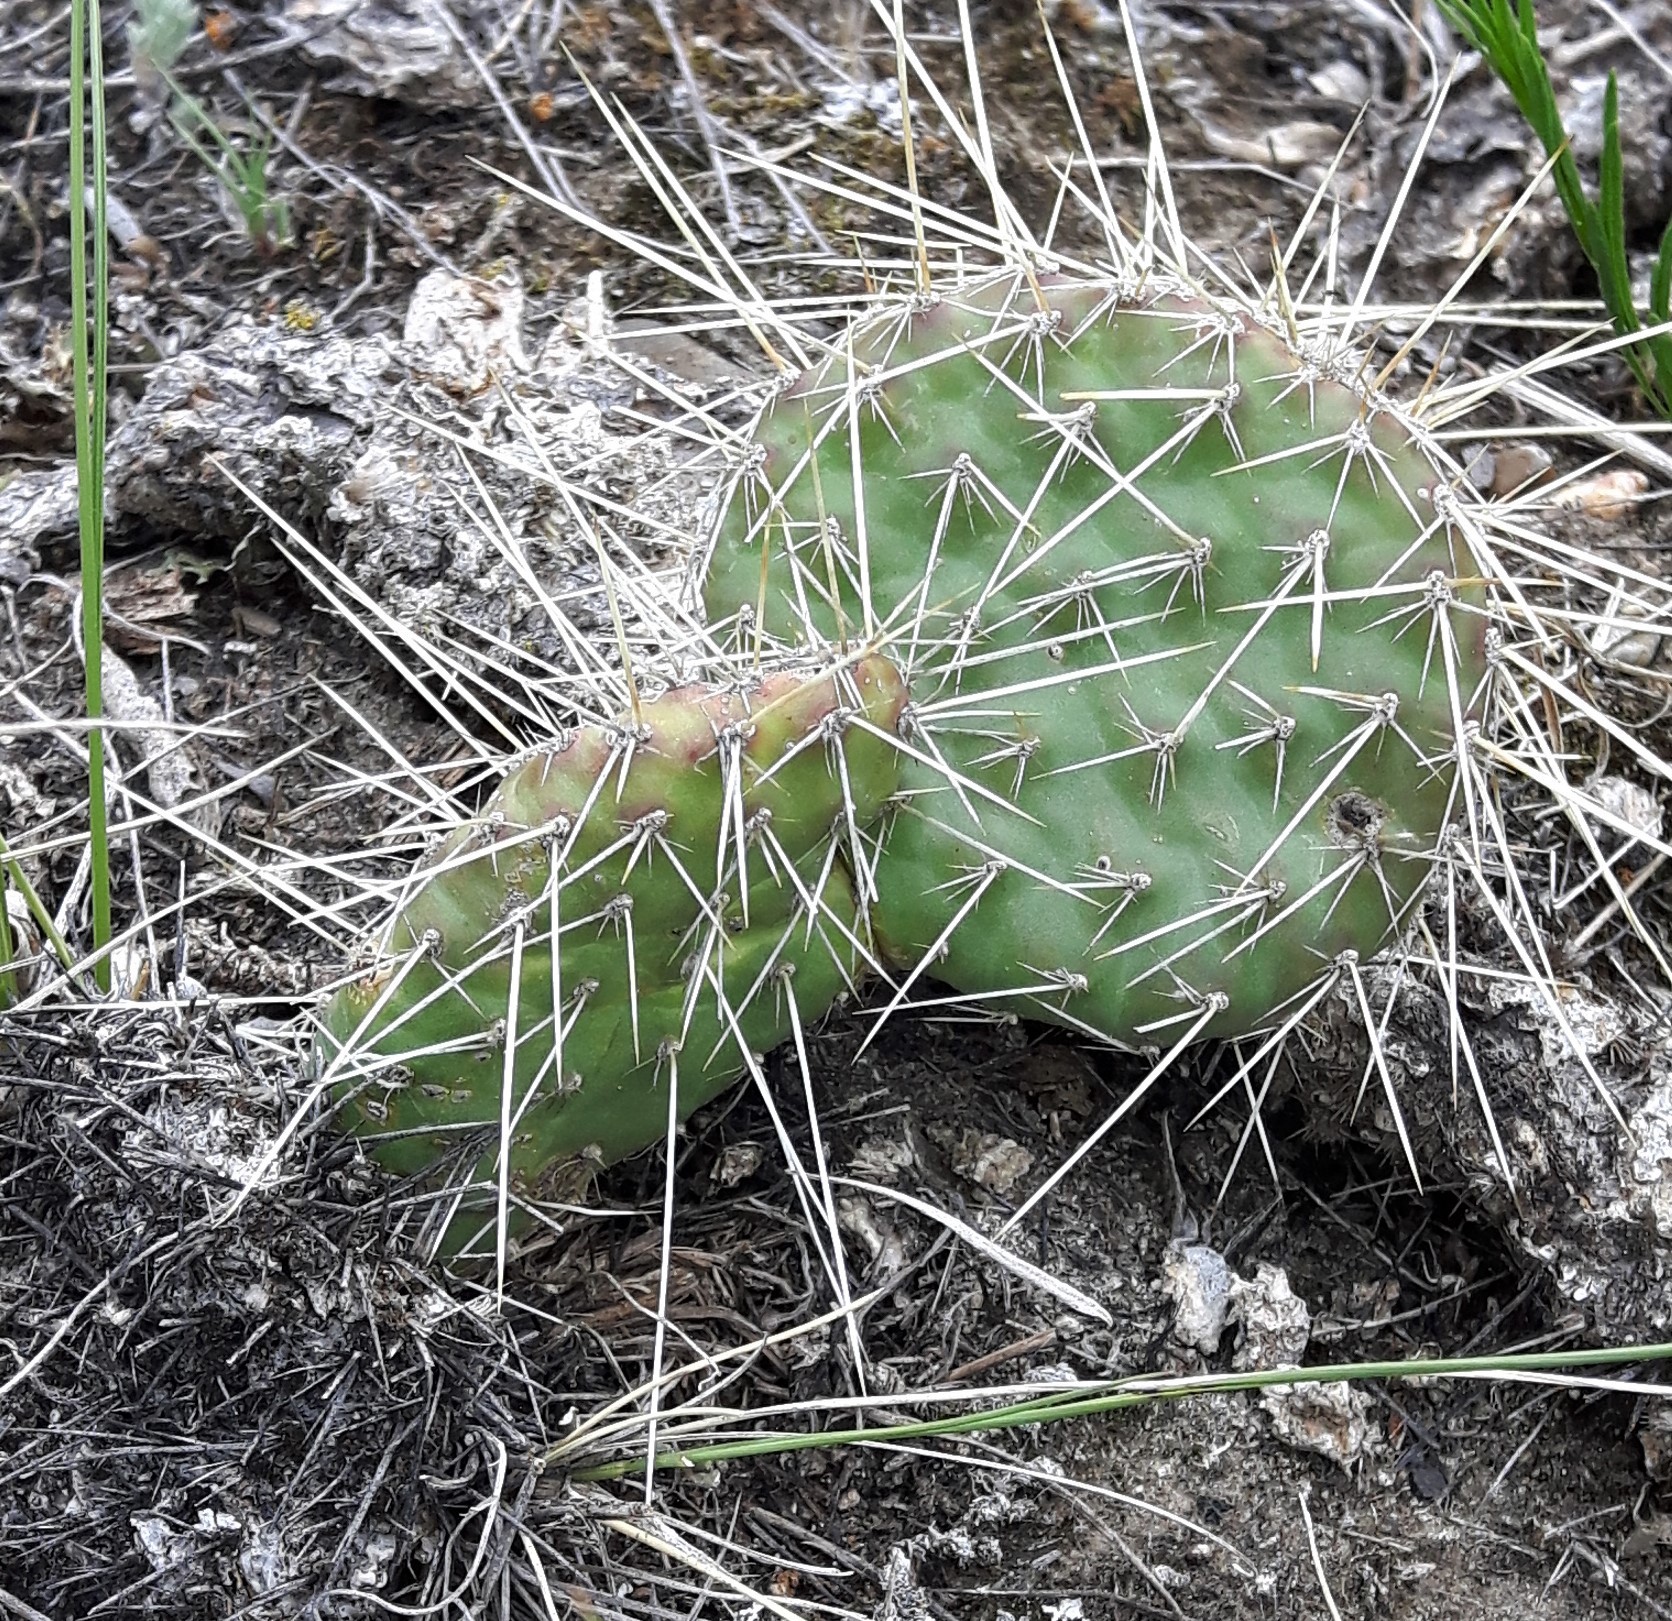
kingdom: Plantae
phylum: Tracheophyta
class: Magnoliopsida
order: Caryophyllales
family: Cactaceae
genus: Opuntia
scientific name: Opuntia polyacantha
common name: Plains prickly-pear
